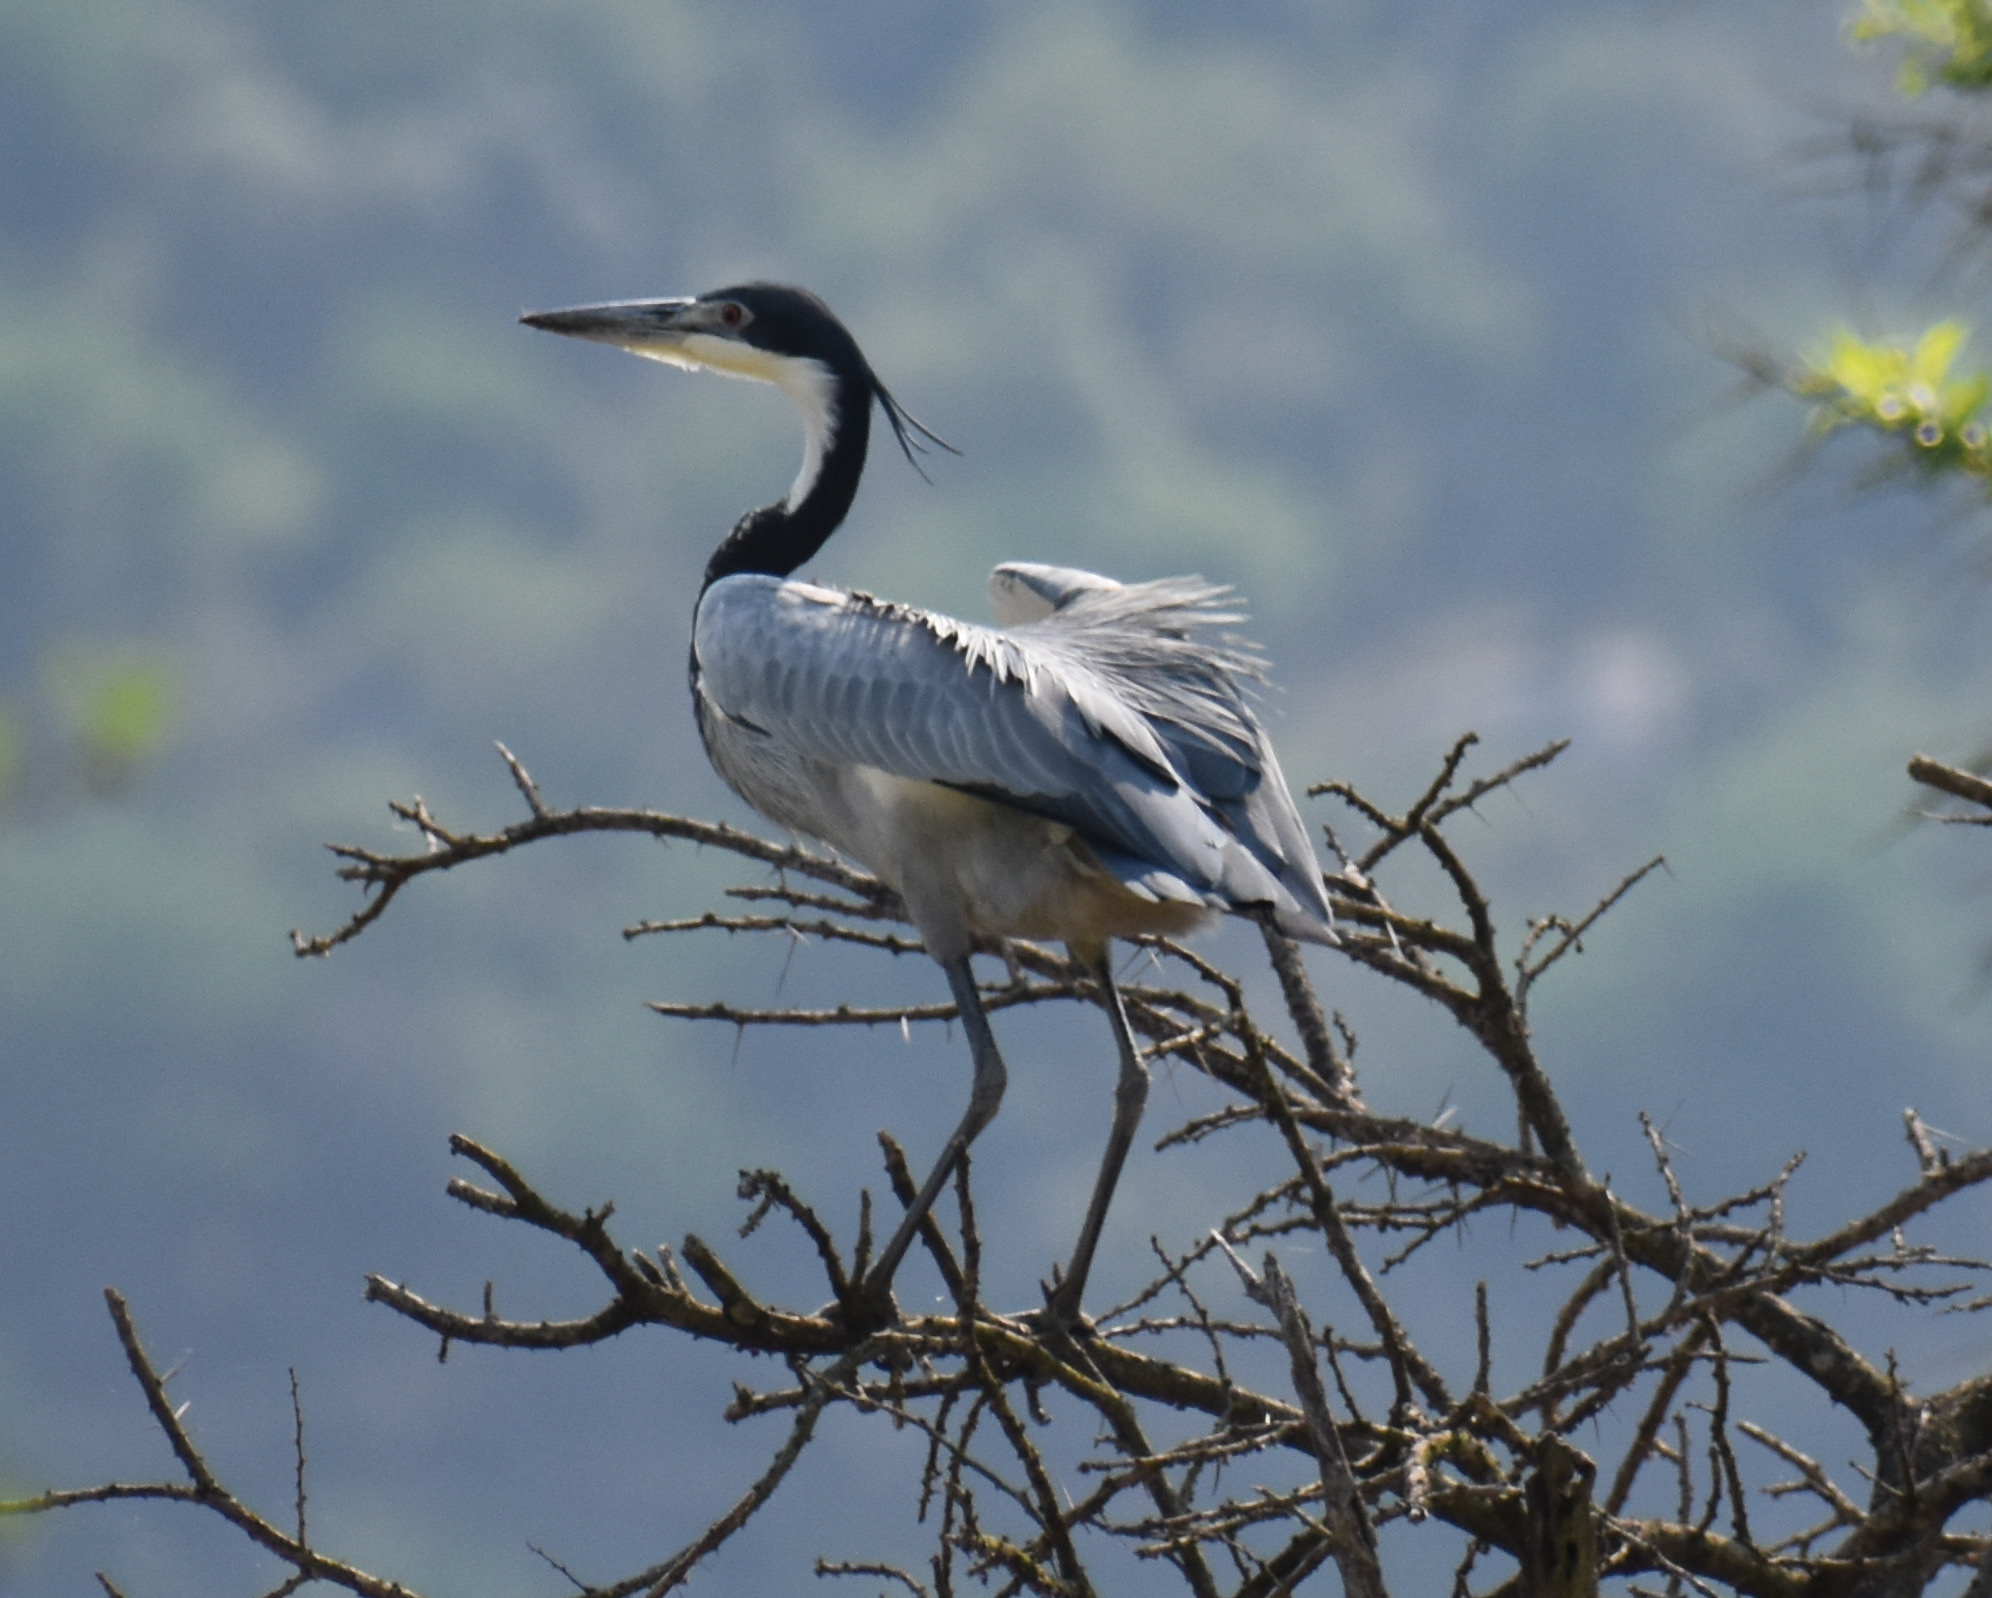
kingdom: Animalia
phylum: Chordata
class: Aves
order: Pelecaniformes
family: Ardeidae
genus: Ardea
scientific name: Ardea melanocephala
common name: Black-headed heron
